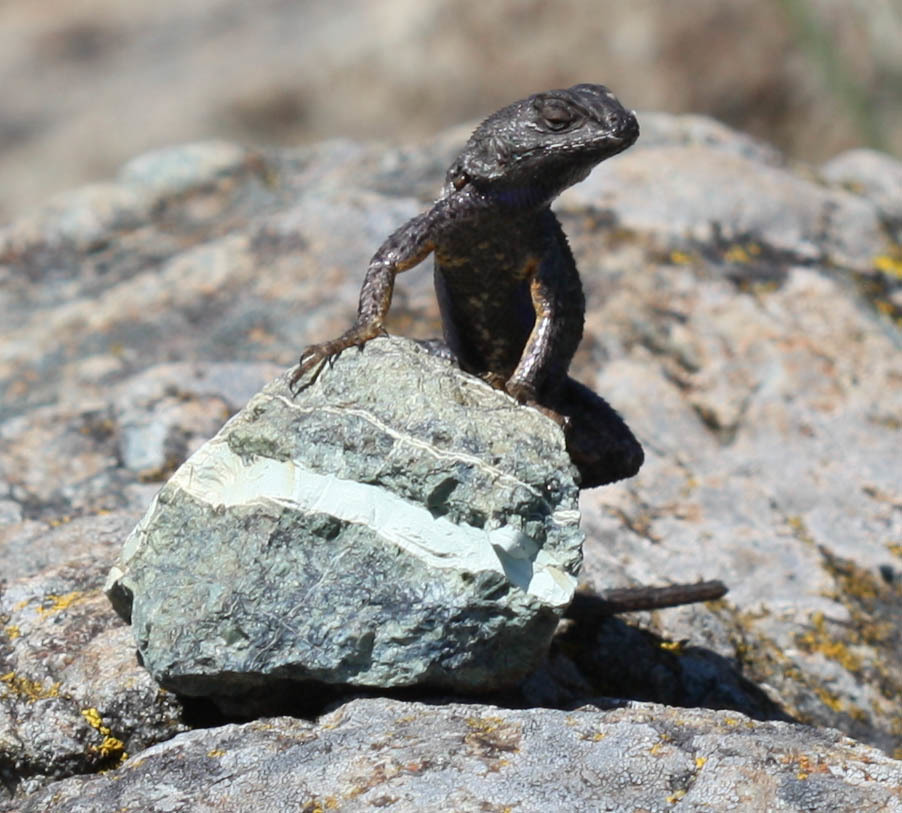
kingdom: Animalia
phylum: Chordata
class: Squamata
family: Phrynosomatidae
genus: Sceloporus
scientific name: Sceloporus occidentalis
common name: Western fence lizard
